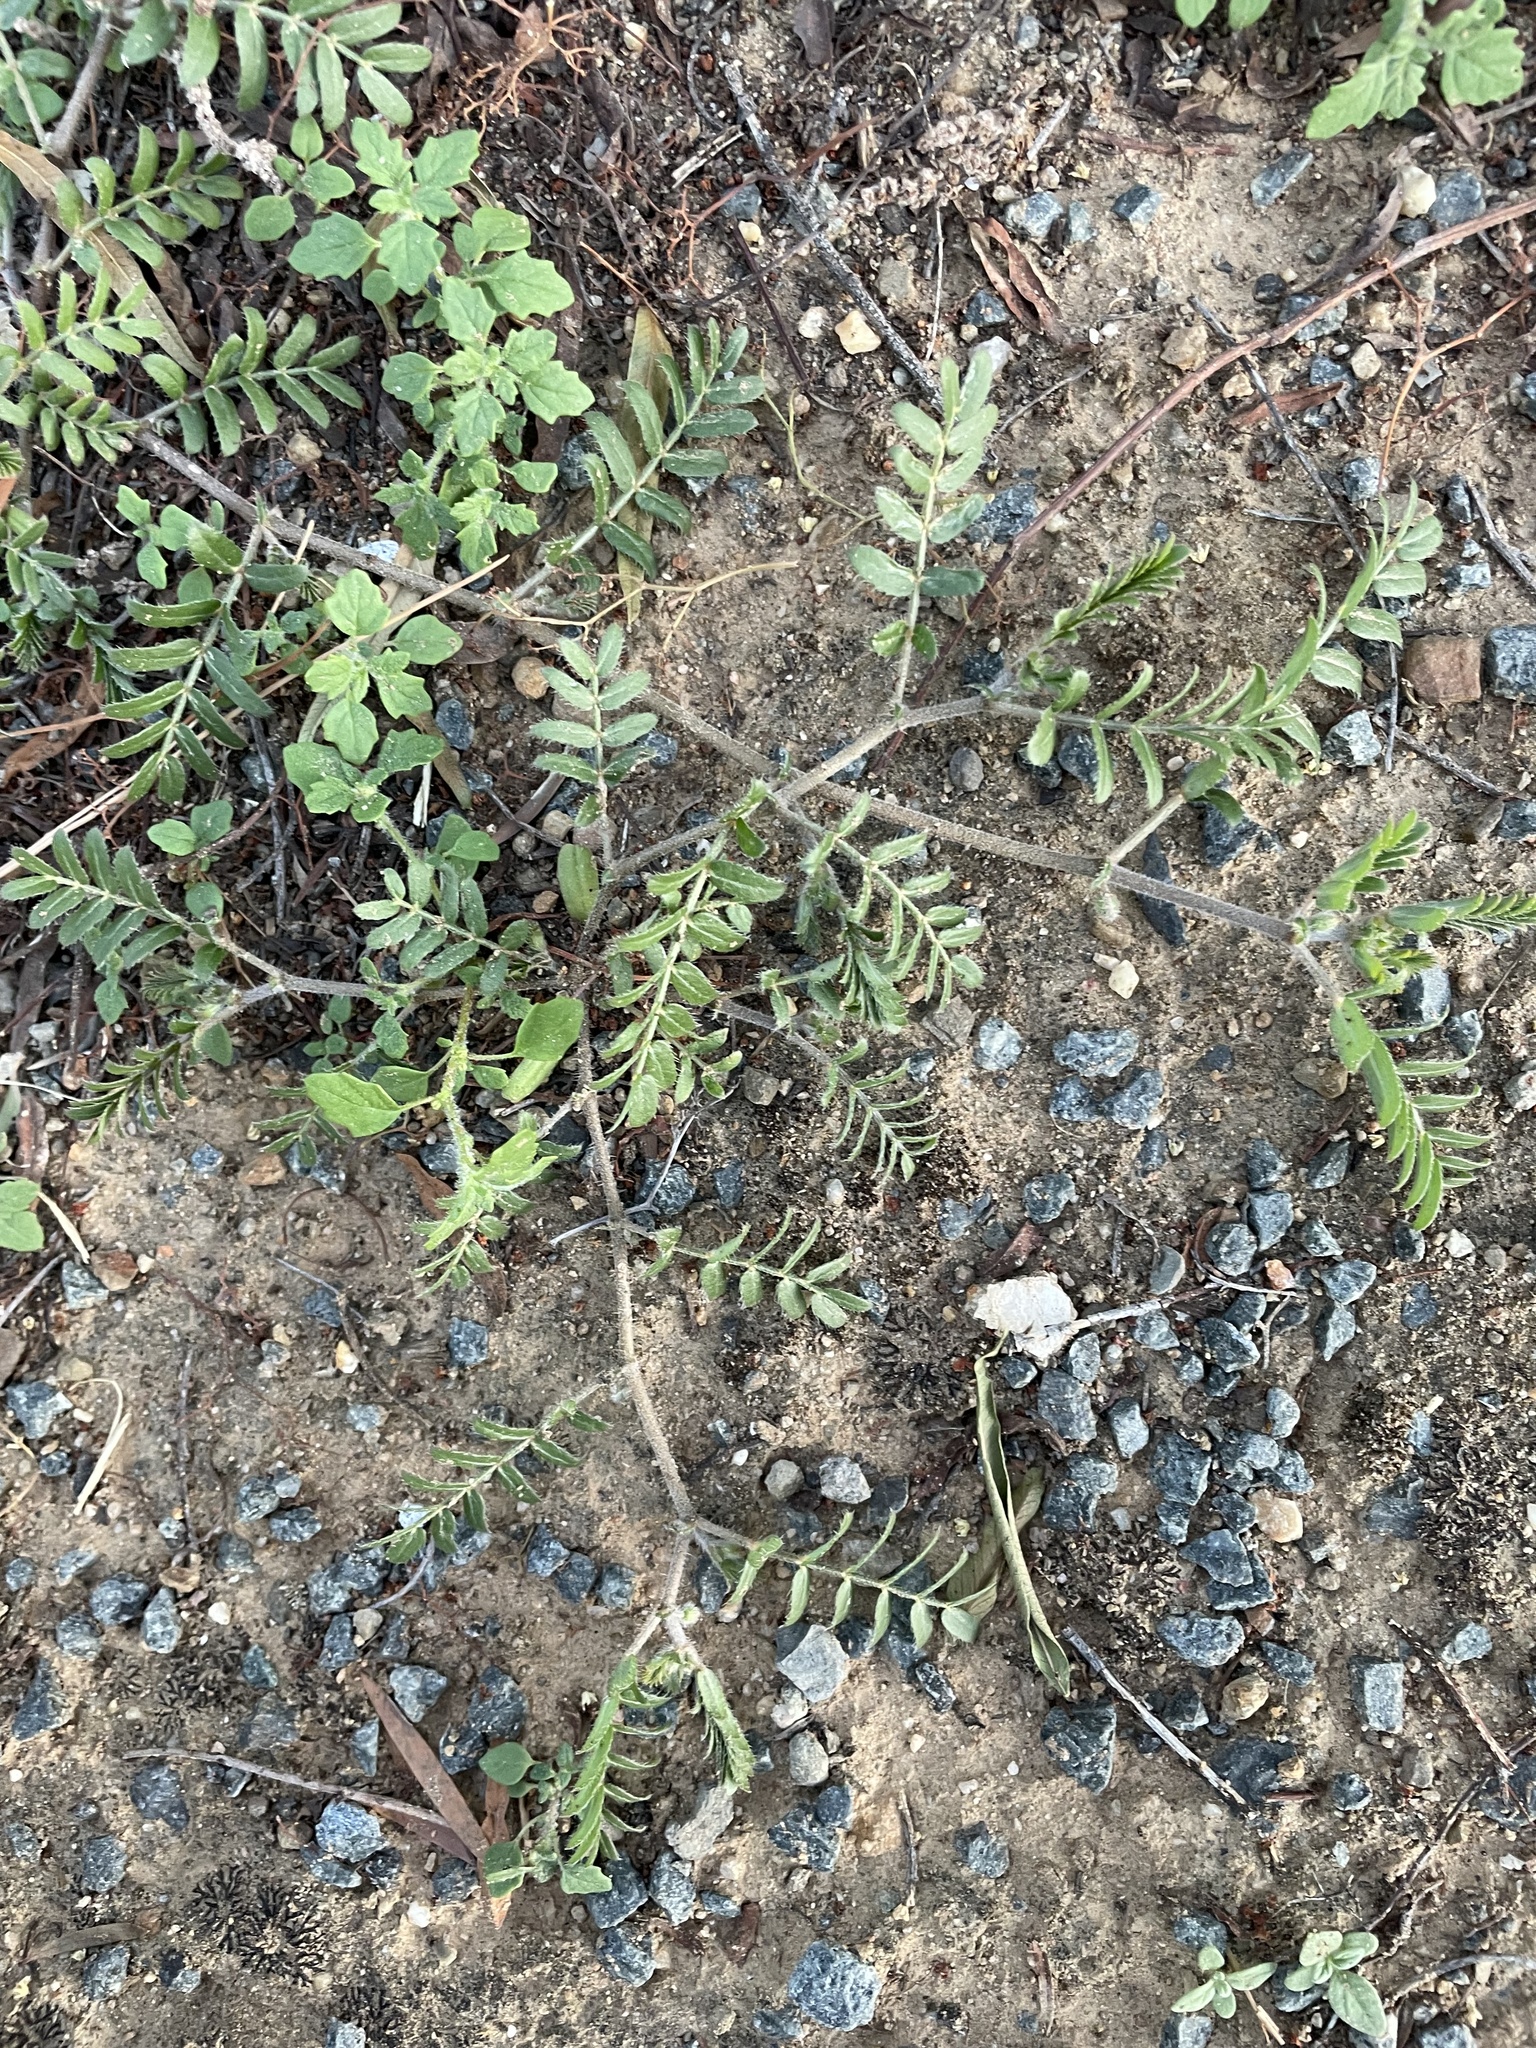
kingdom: Plantae
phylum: Tracheophyta
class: Magnoliopsida
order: Zygophyllales
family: Zygophyllaceae
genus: Tribulus
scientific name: Tribulus terrestris
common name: Puncturevine
